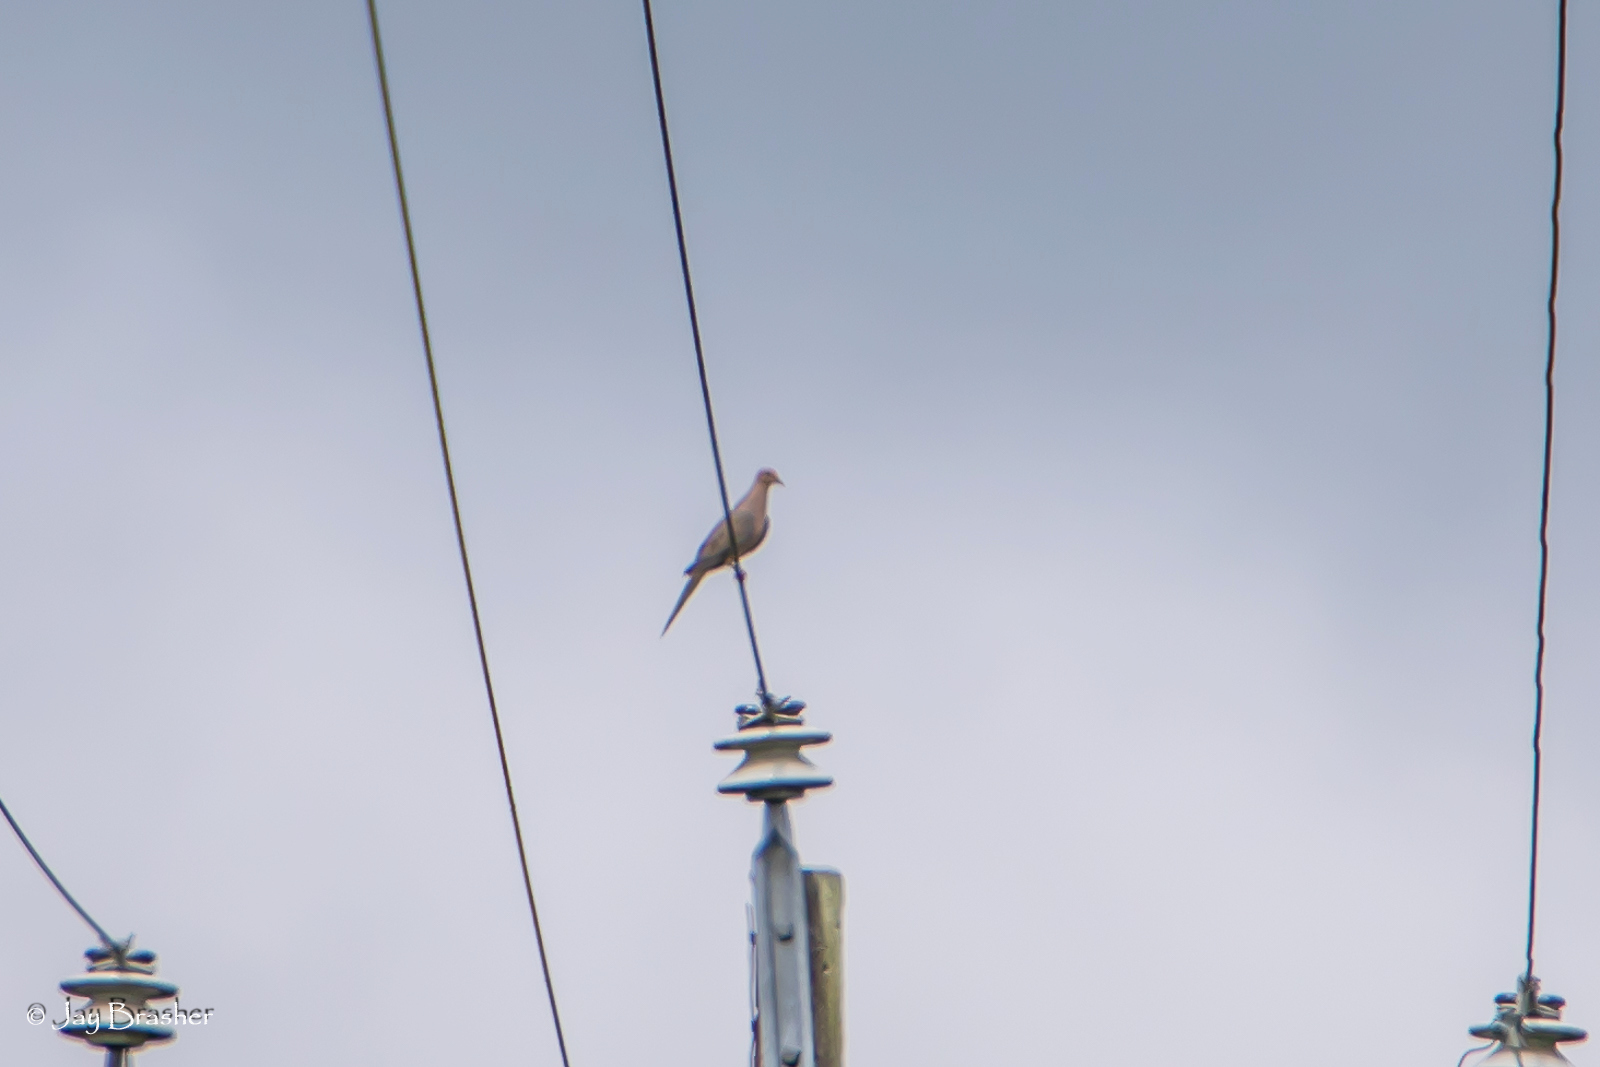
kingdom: Animalia
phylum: Chordata
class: Aves
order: Columbiformes
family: Columbidae
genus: Zenaida
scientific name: Zenaida macroura
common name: Mourning dove
